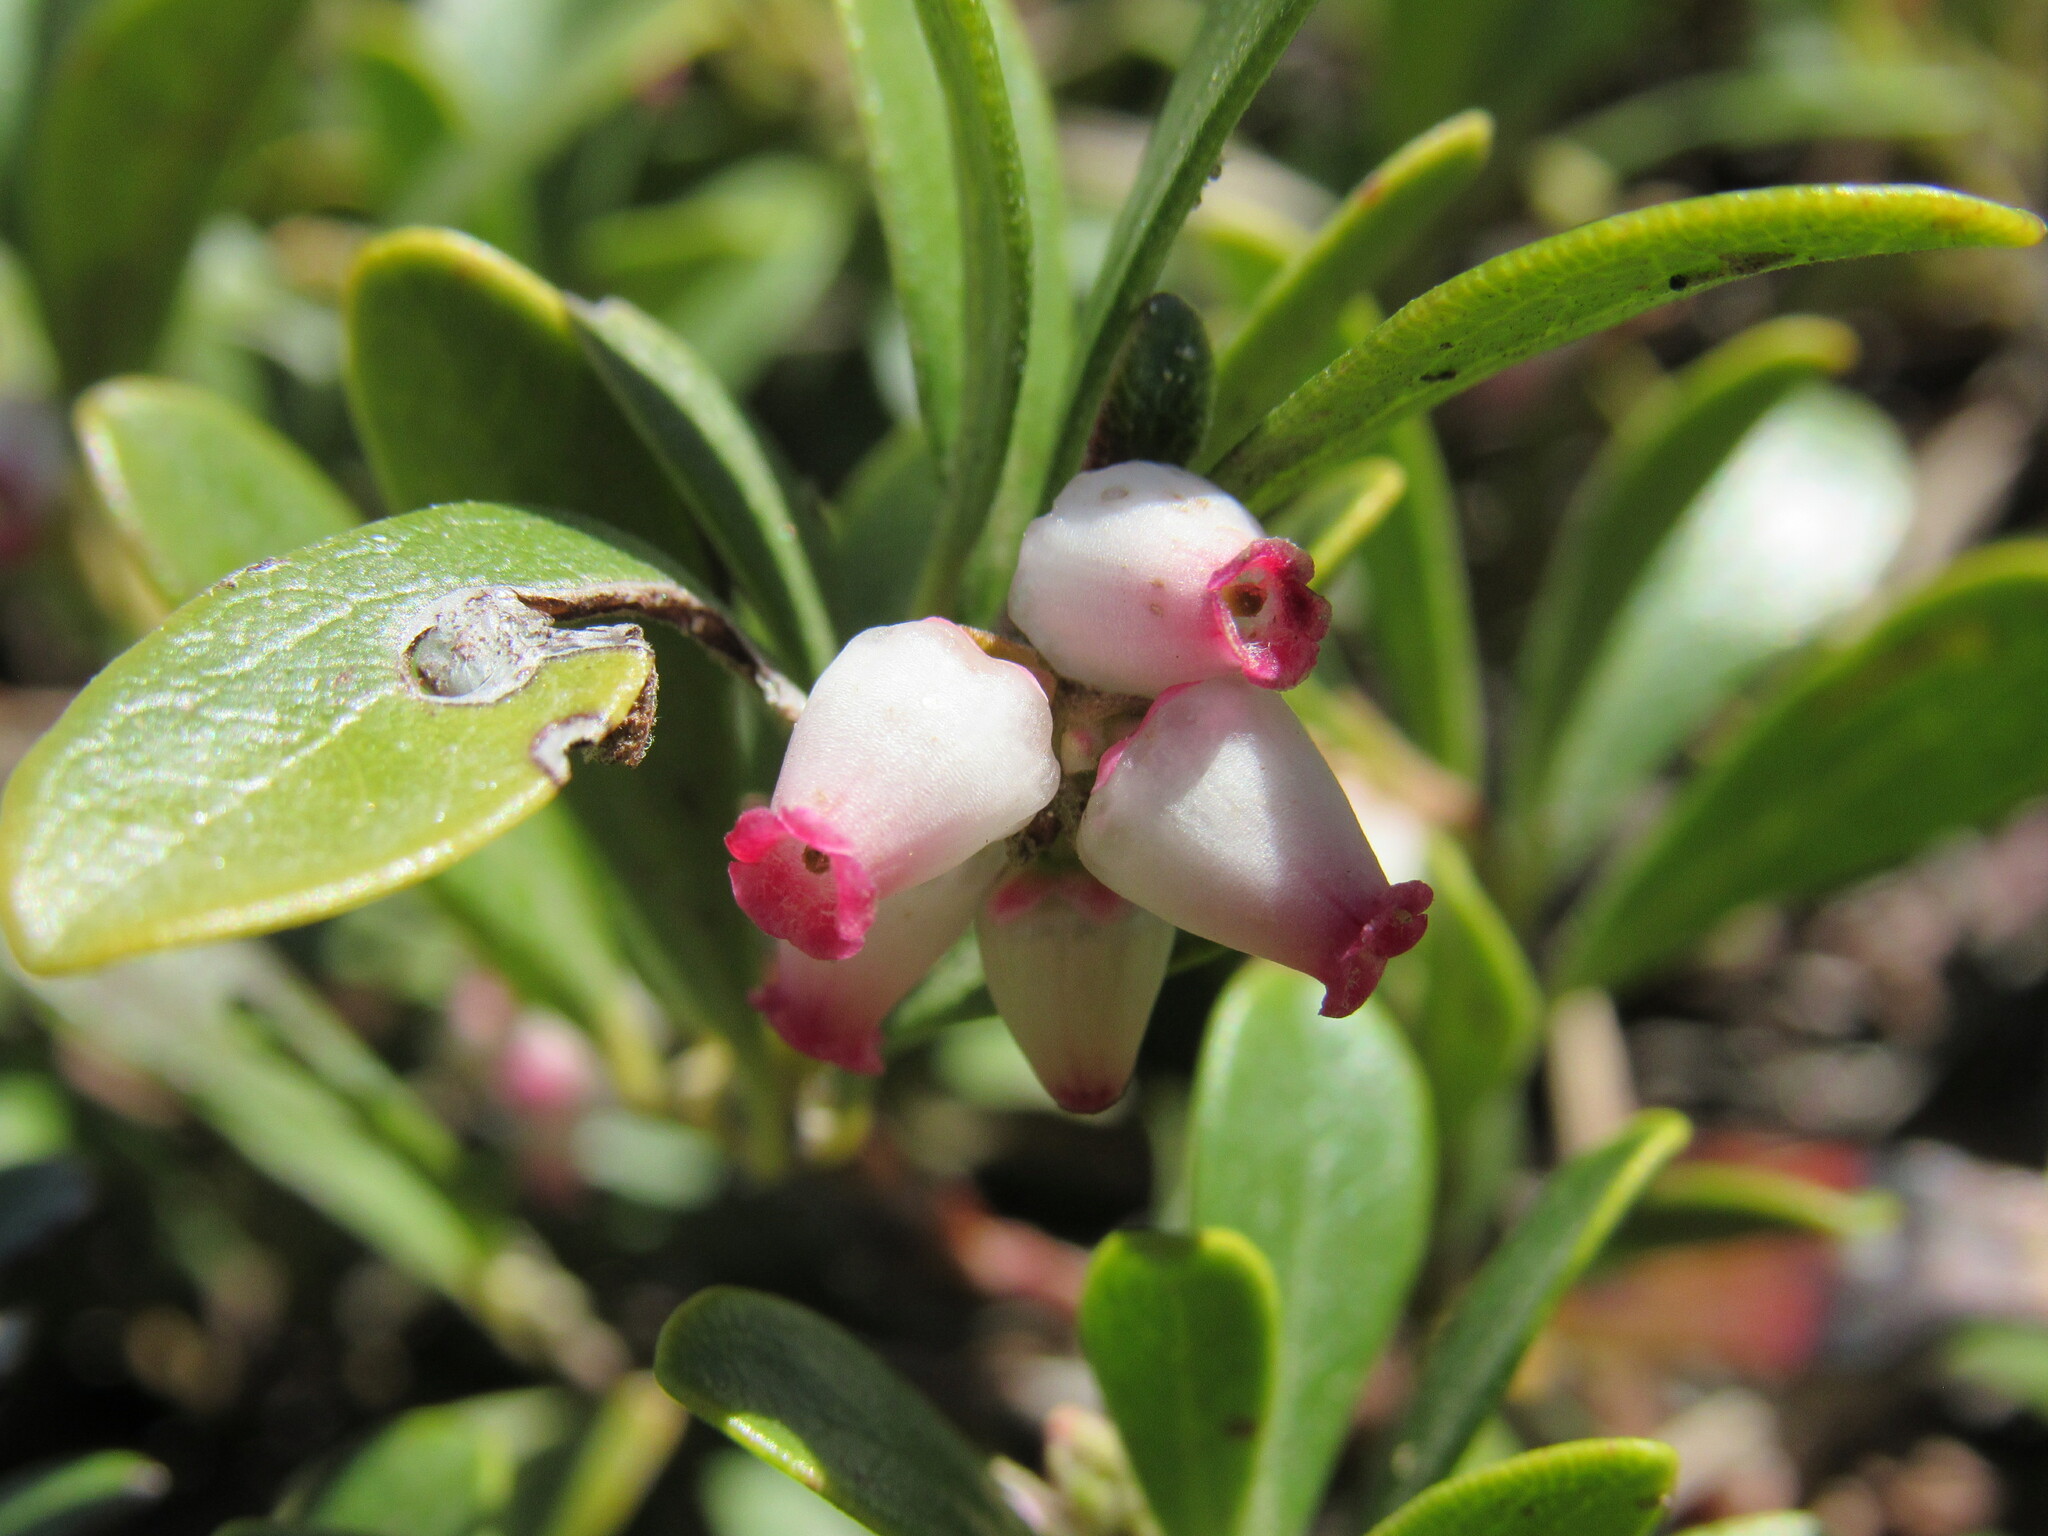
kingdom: Plantae
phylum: Tracheophyta
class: Magnoliopsida
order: Ericales
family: Ericaceae
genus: Arctostaphylos
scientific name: Arctostaphylos uva-ursi
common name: Bearberry
